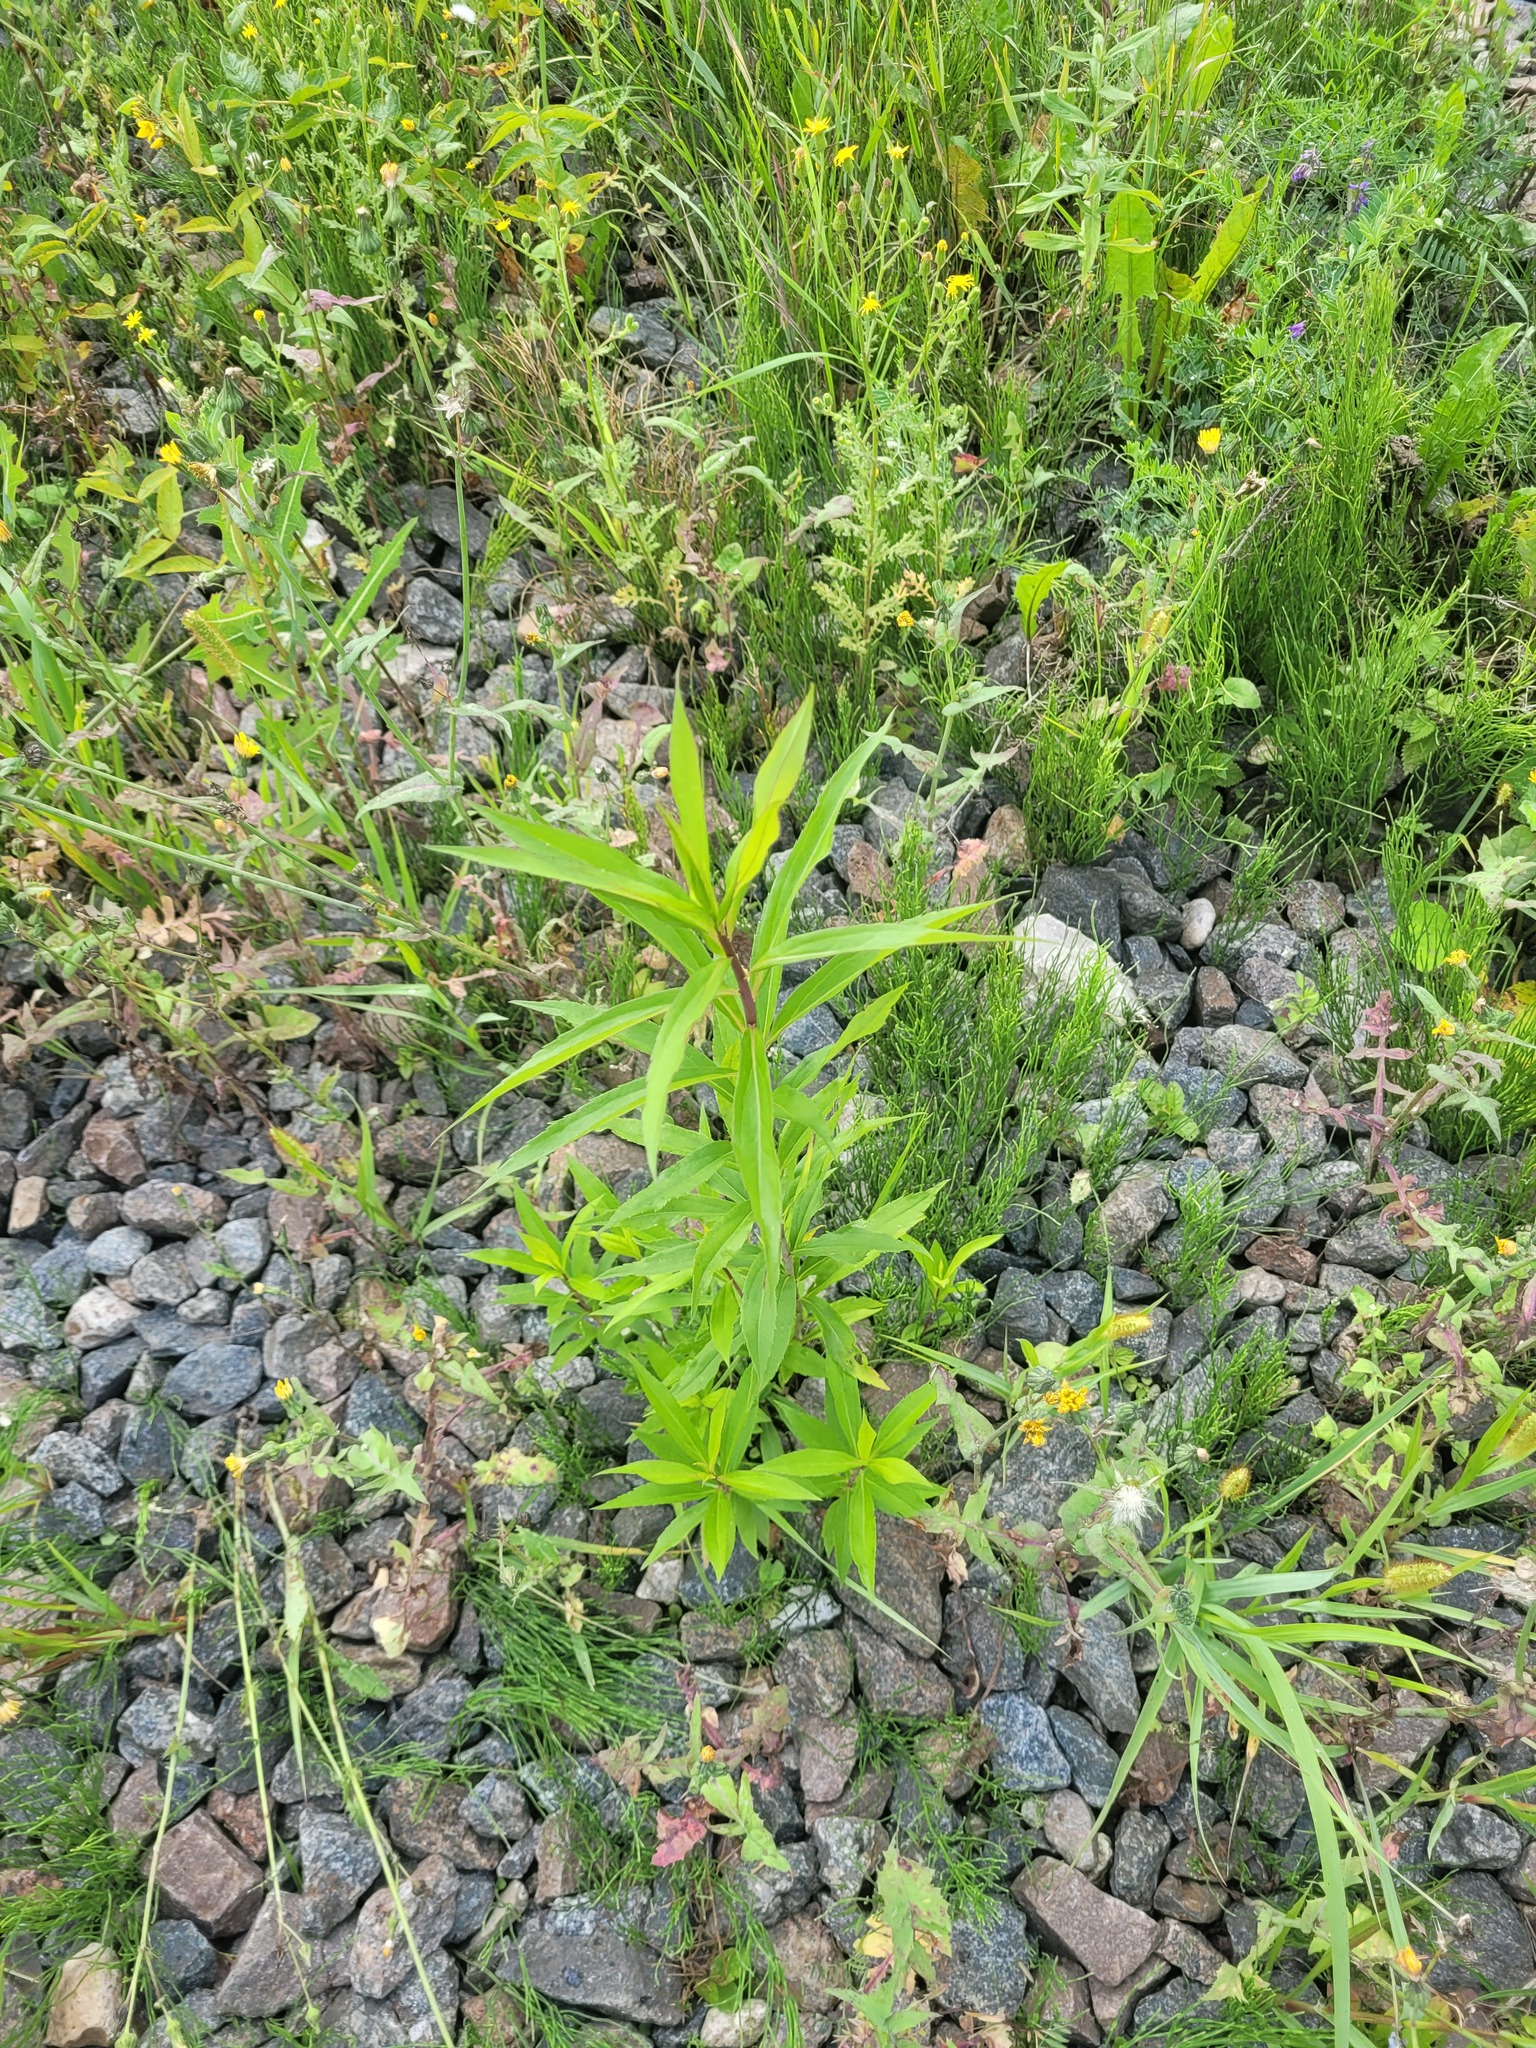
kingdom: Plantae
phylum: Tracheophyta
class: Magnoliopsida
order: Asterales
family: Asteraceae
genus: Solidago
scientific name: Solidago gigantea
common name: Giant goldenrod
